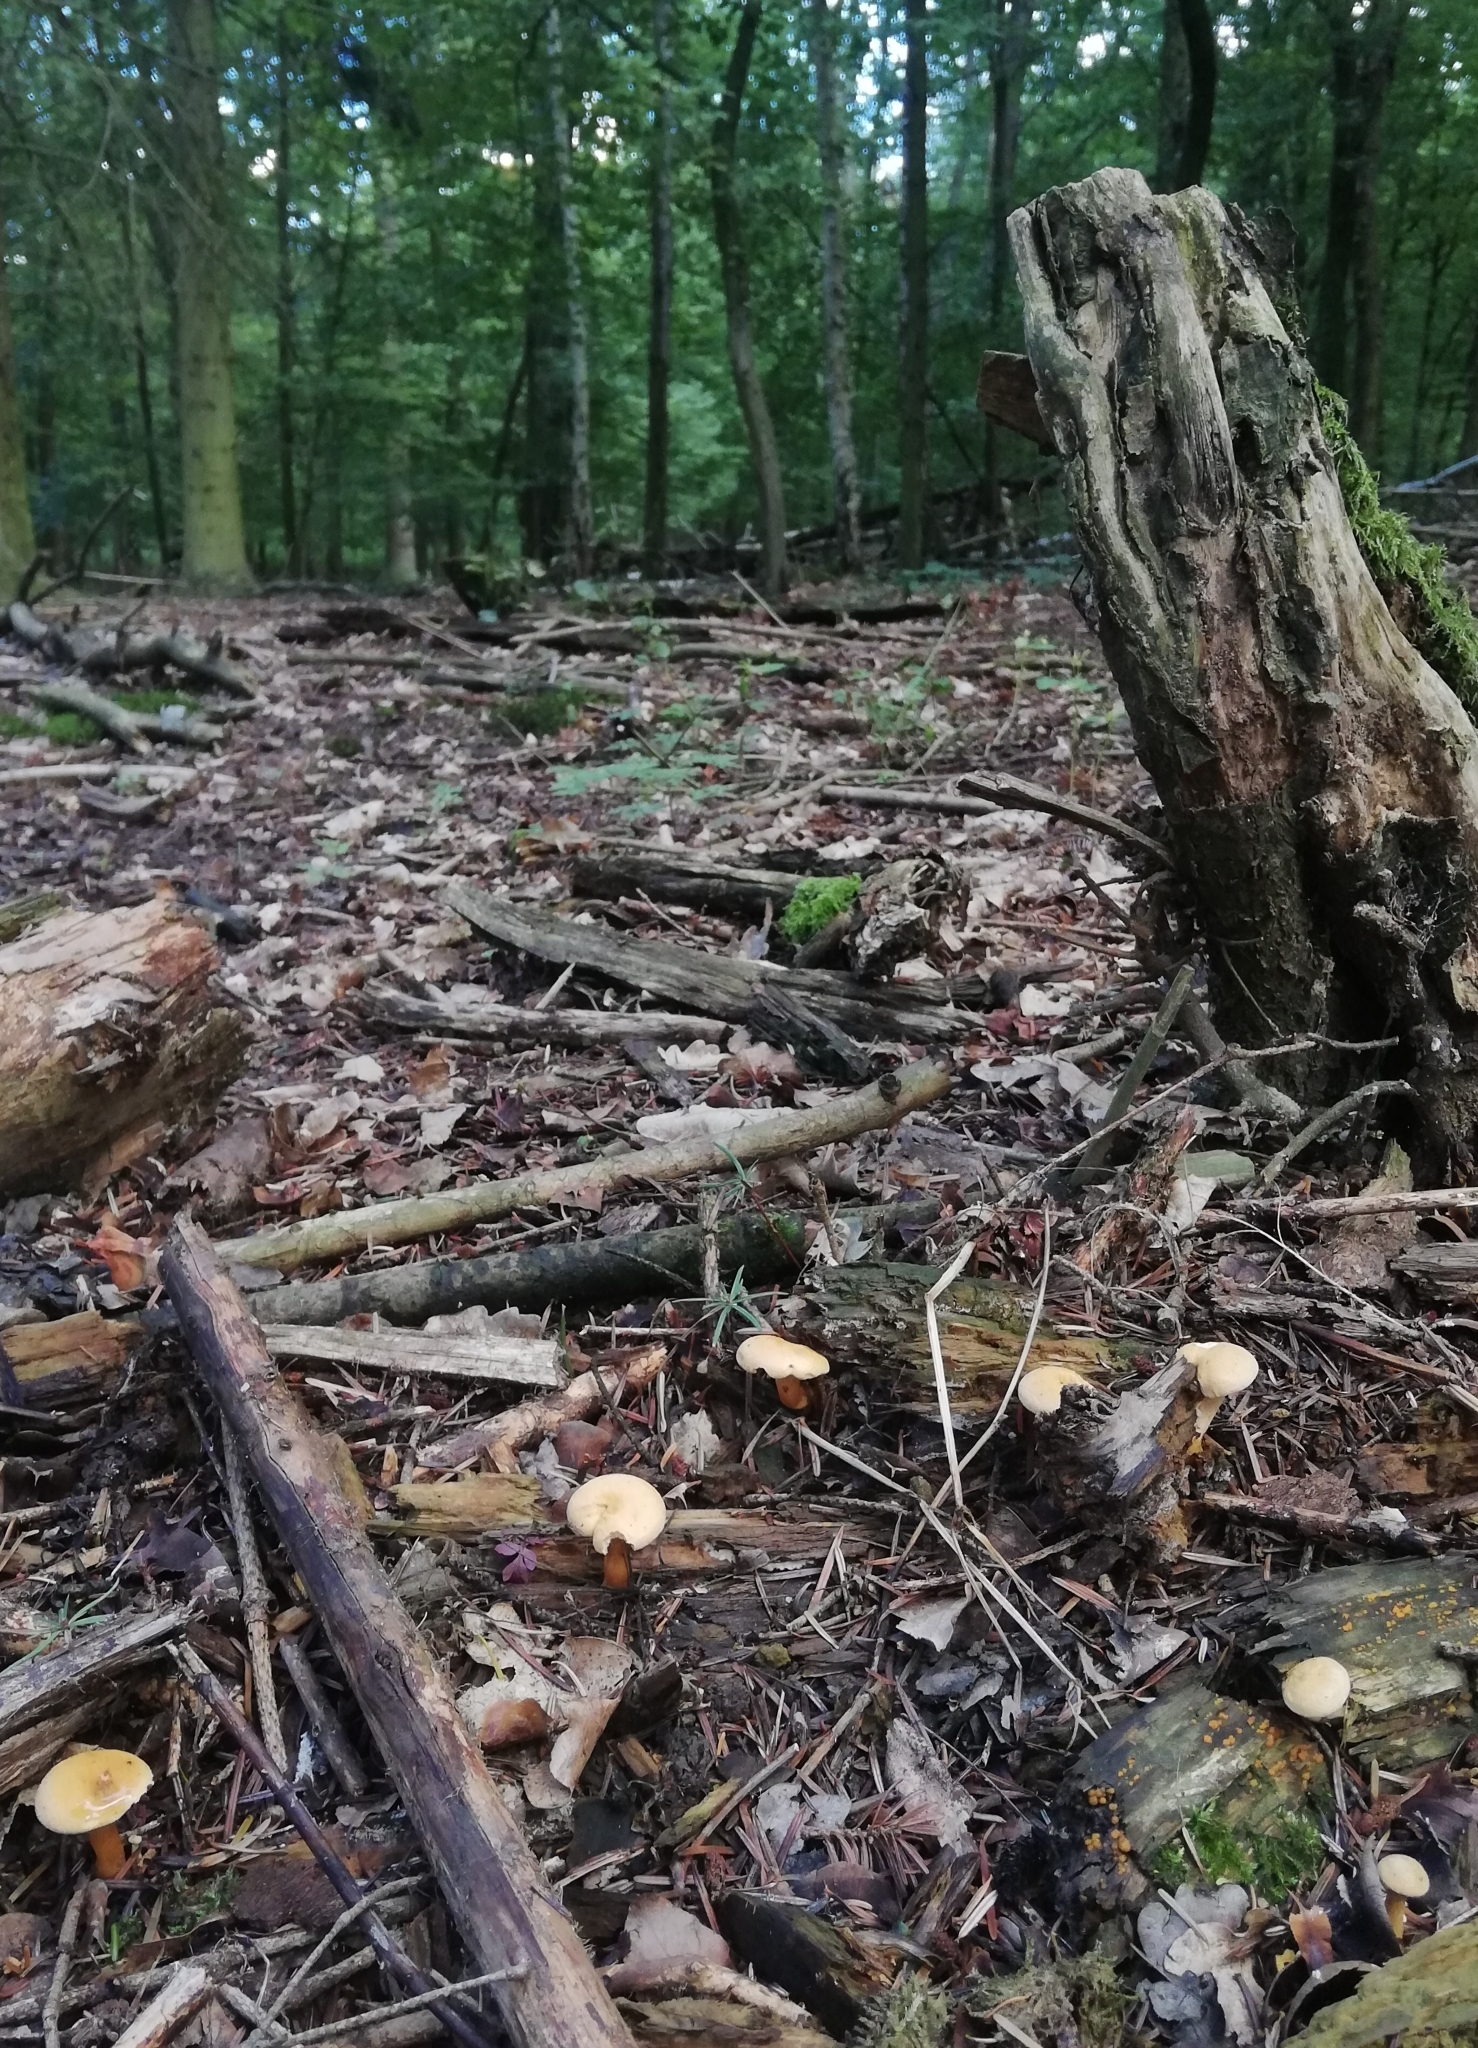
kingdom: Fungi
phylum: Basidiomycota
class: Agaricomycetes
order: Boletales
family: Hygrophoropsidaceae
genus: Hygrophoropsis
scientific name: Hygrophoropsis aurantiaca
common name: False chanterelle
